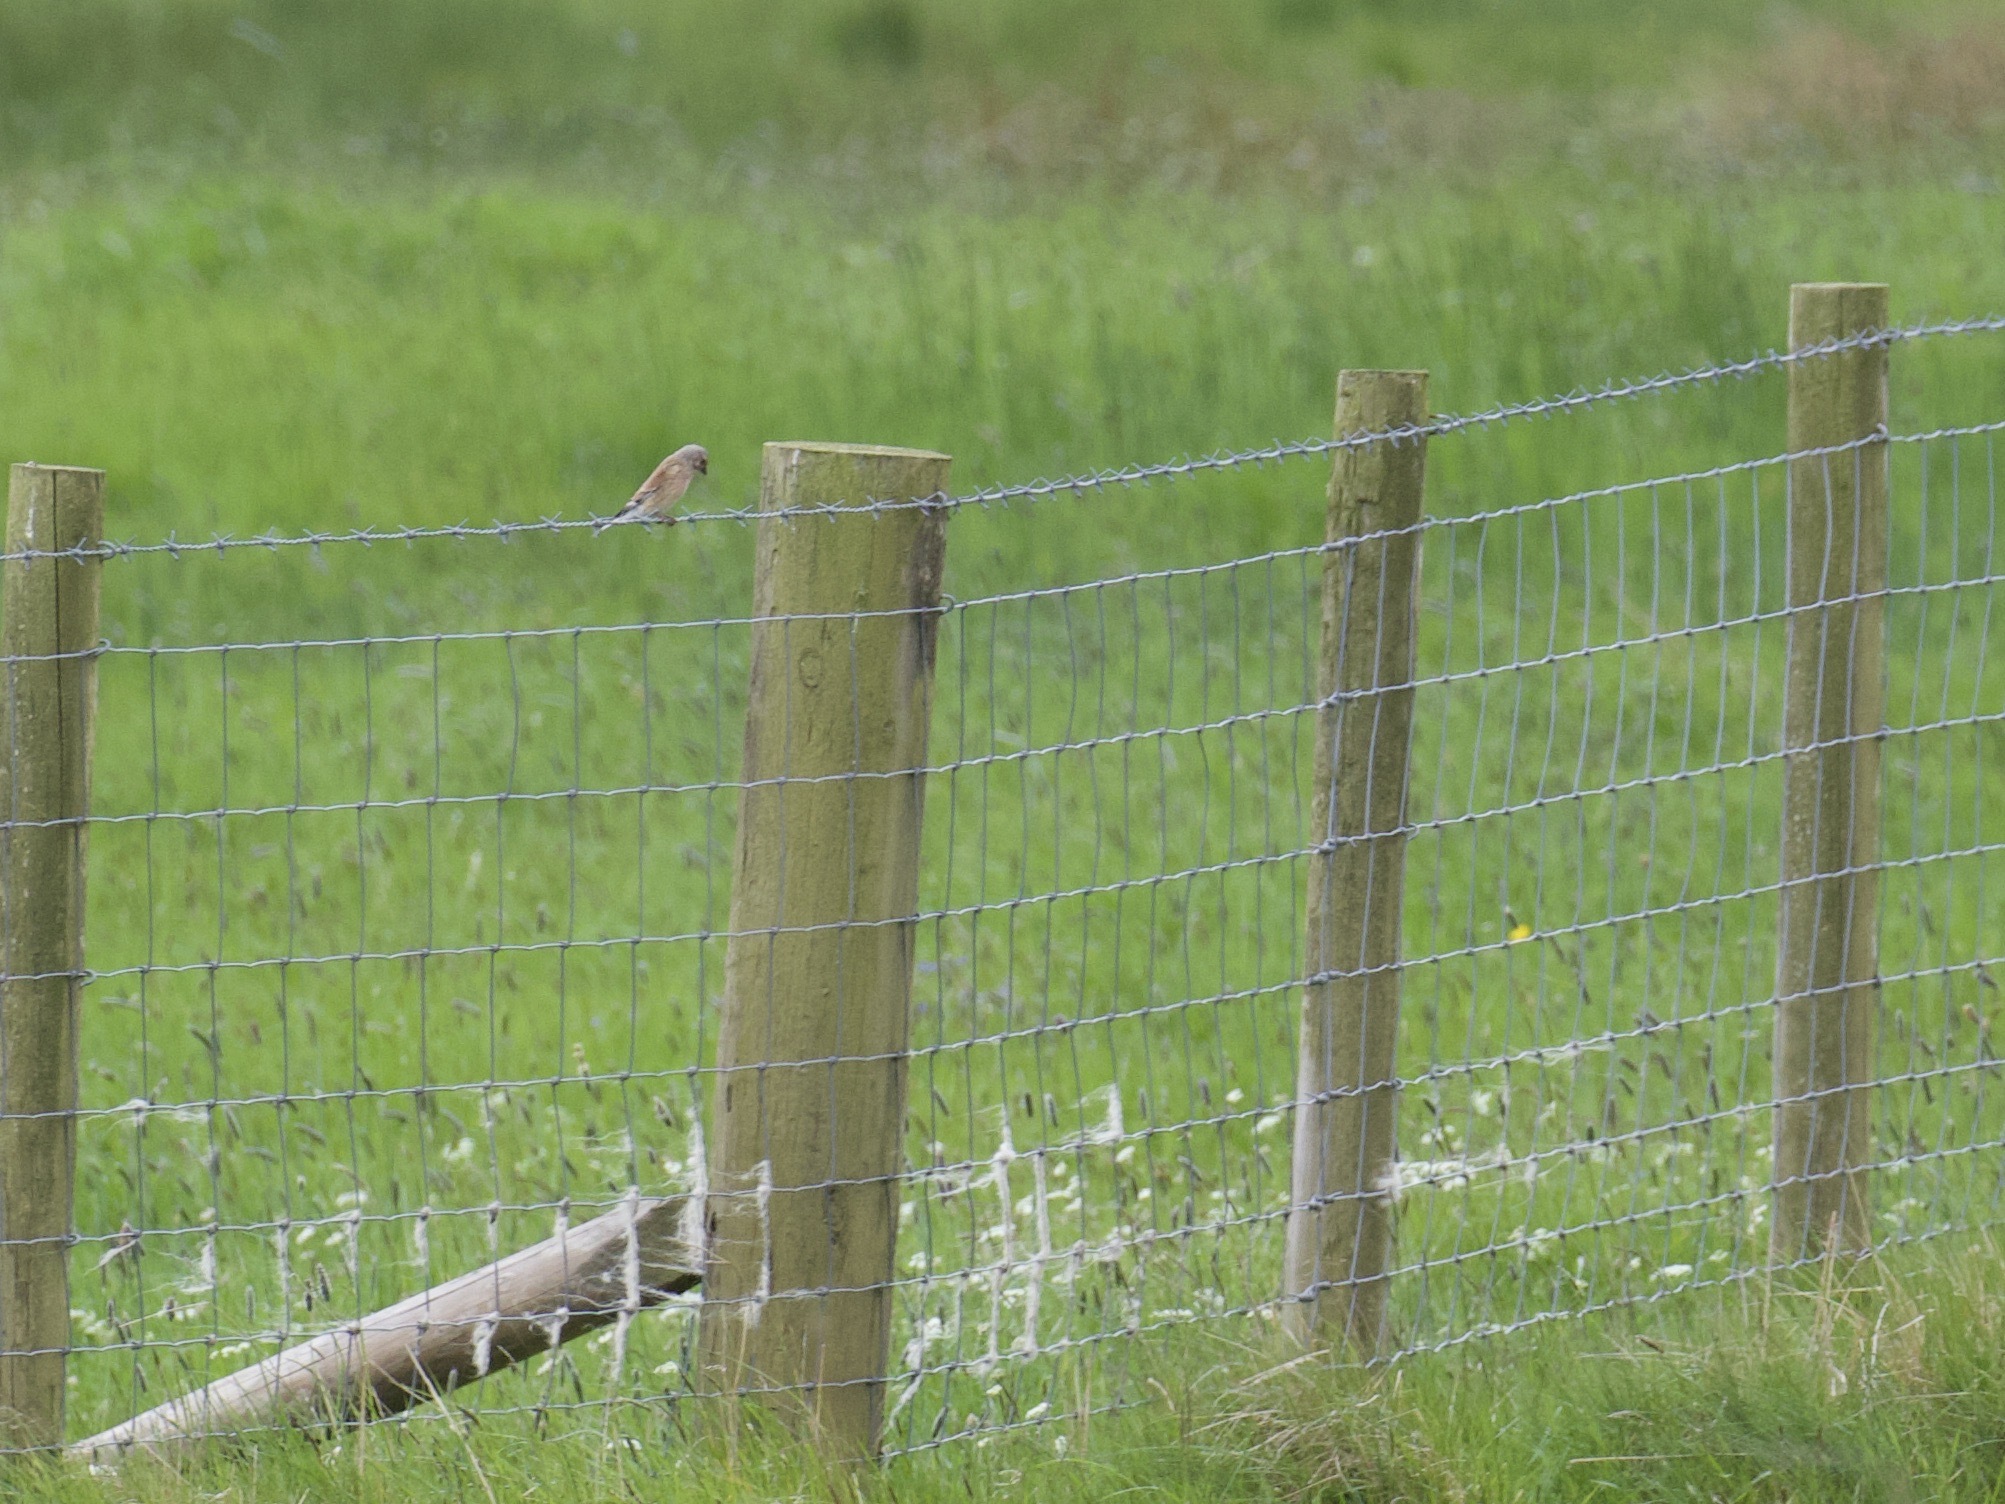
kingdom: Animalia
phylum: Chordata
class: Aves
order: Passeriformes
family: Fringillidae
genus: Linaria
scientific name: Linaria cannabina
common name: Common linnet
